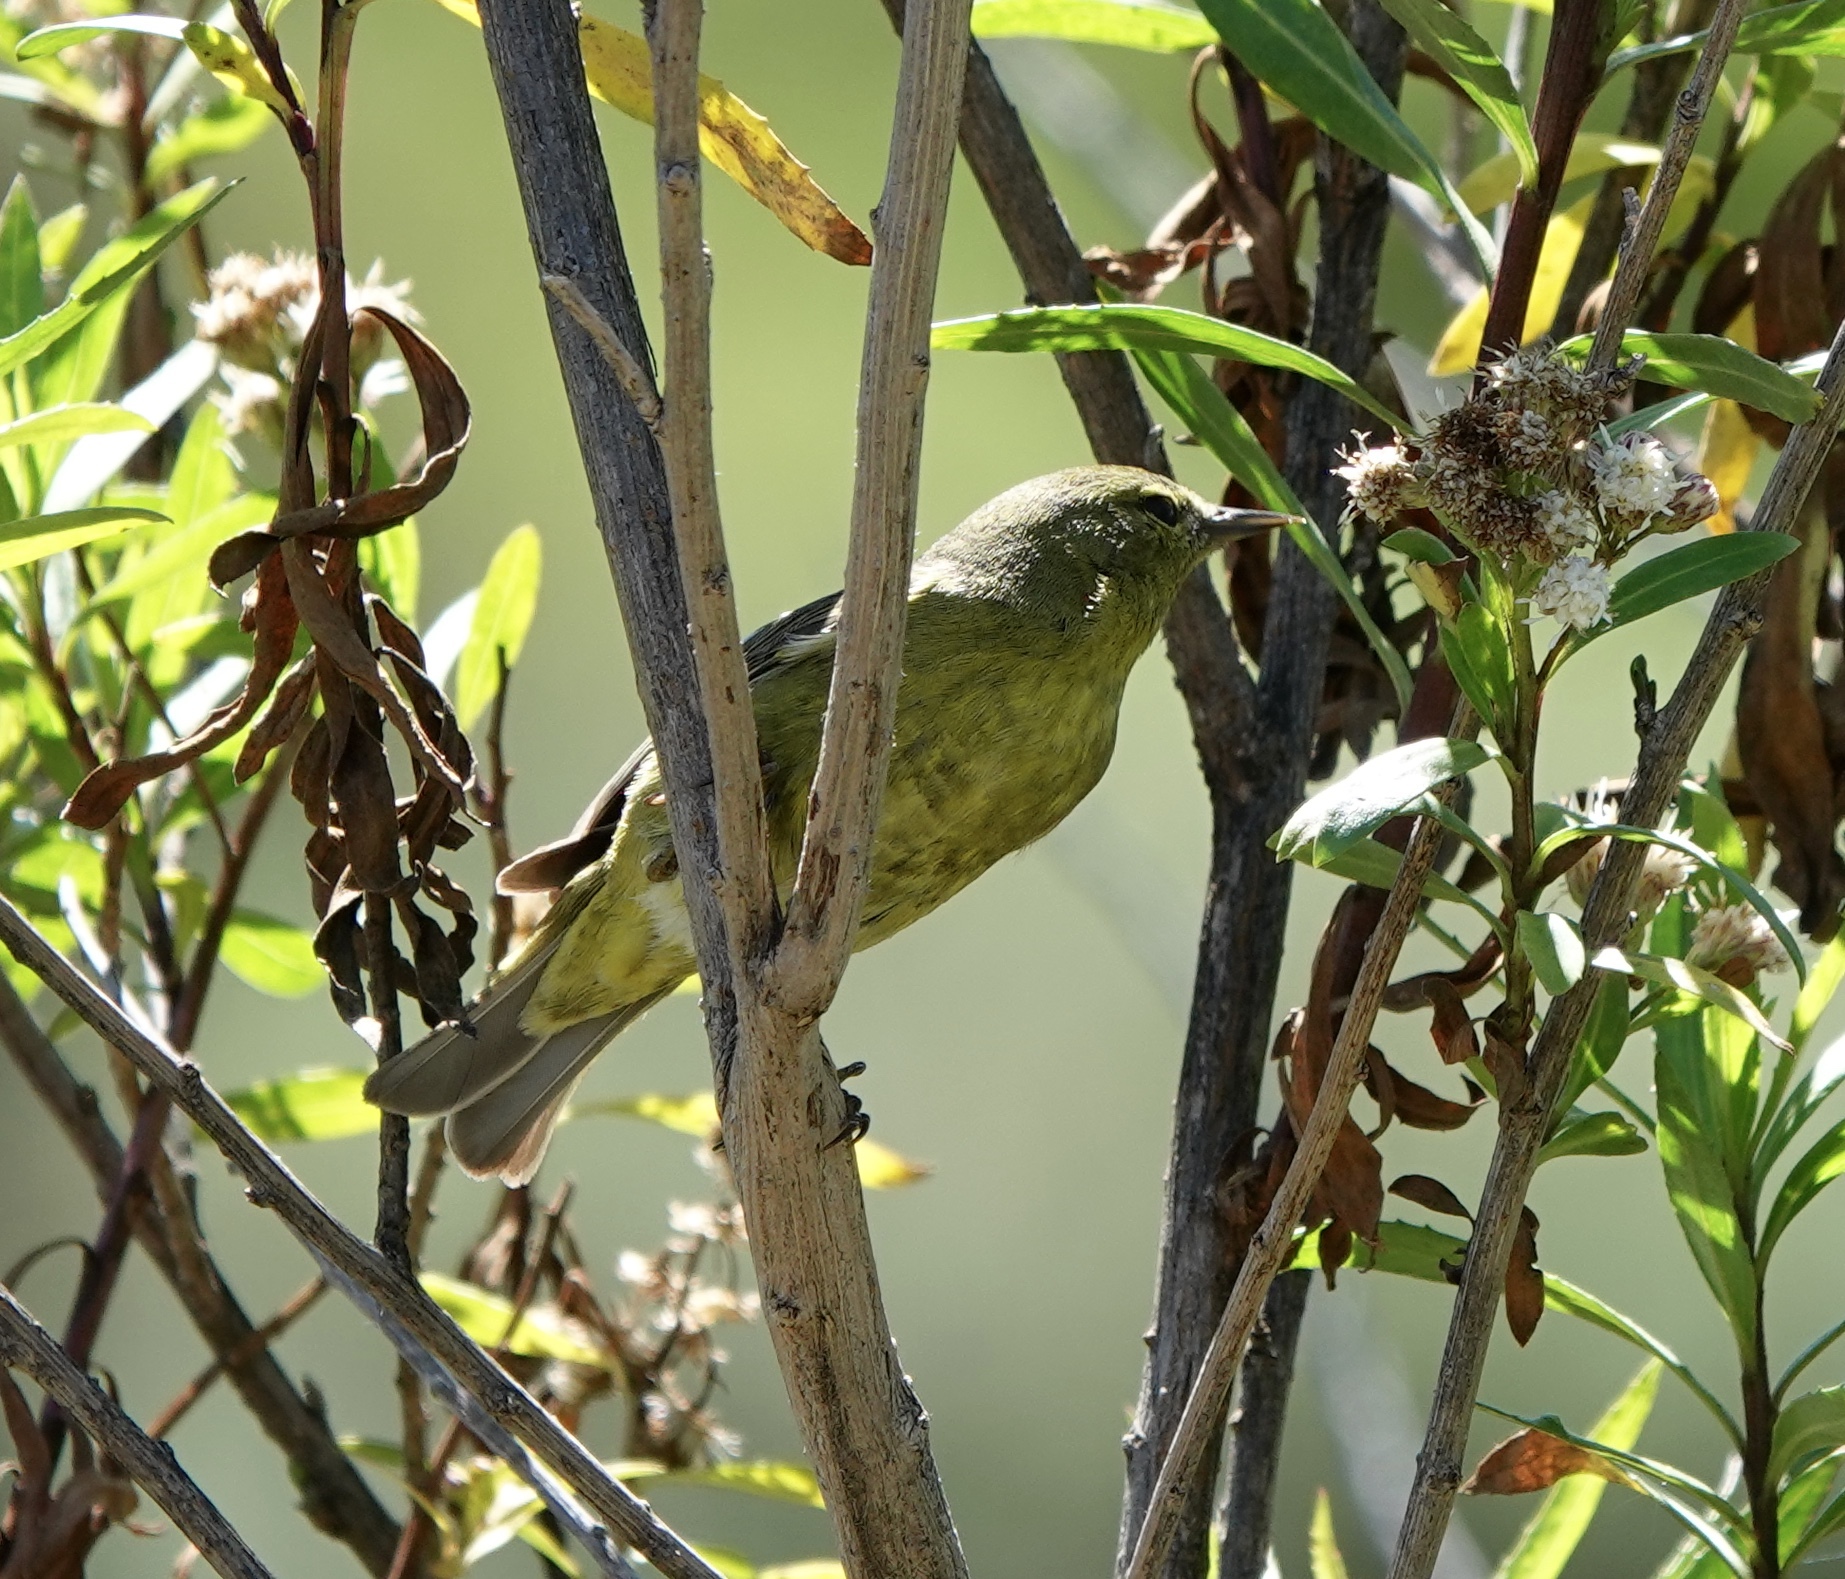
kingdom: Animalia
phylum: Chordata
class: Aves
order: Passeriformes
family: Parulidae
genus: Leiothlypis
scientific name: Leiothlypis celata
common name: Orange-crowned warbler
